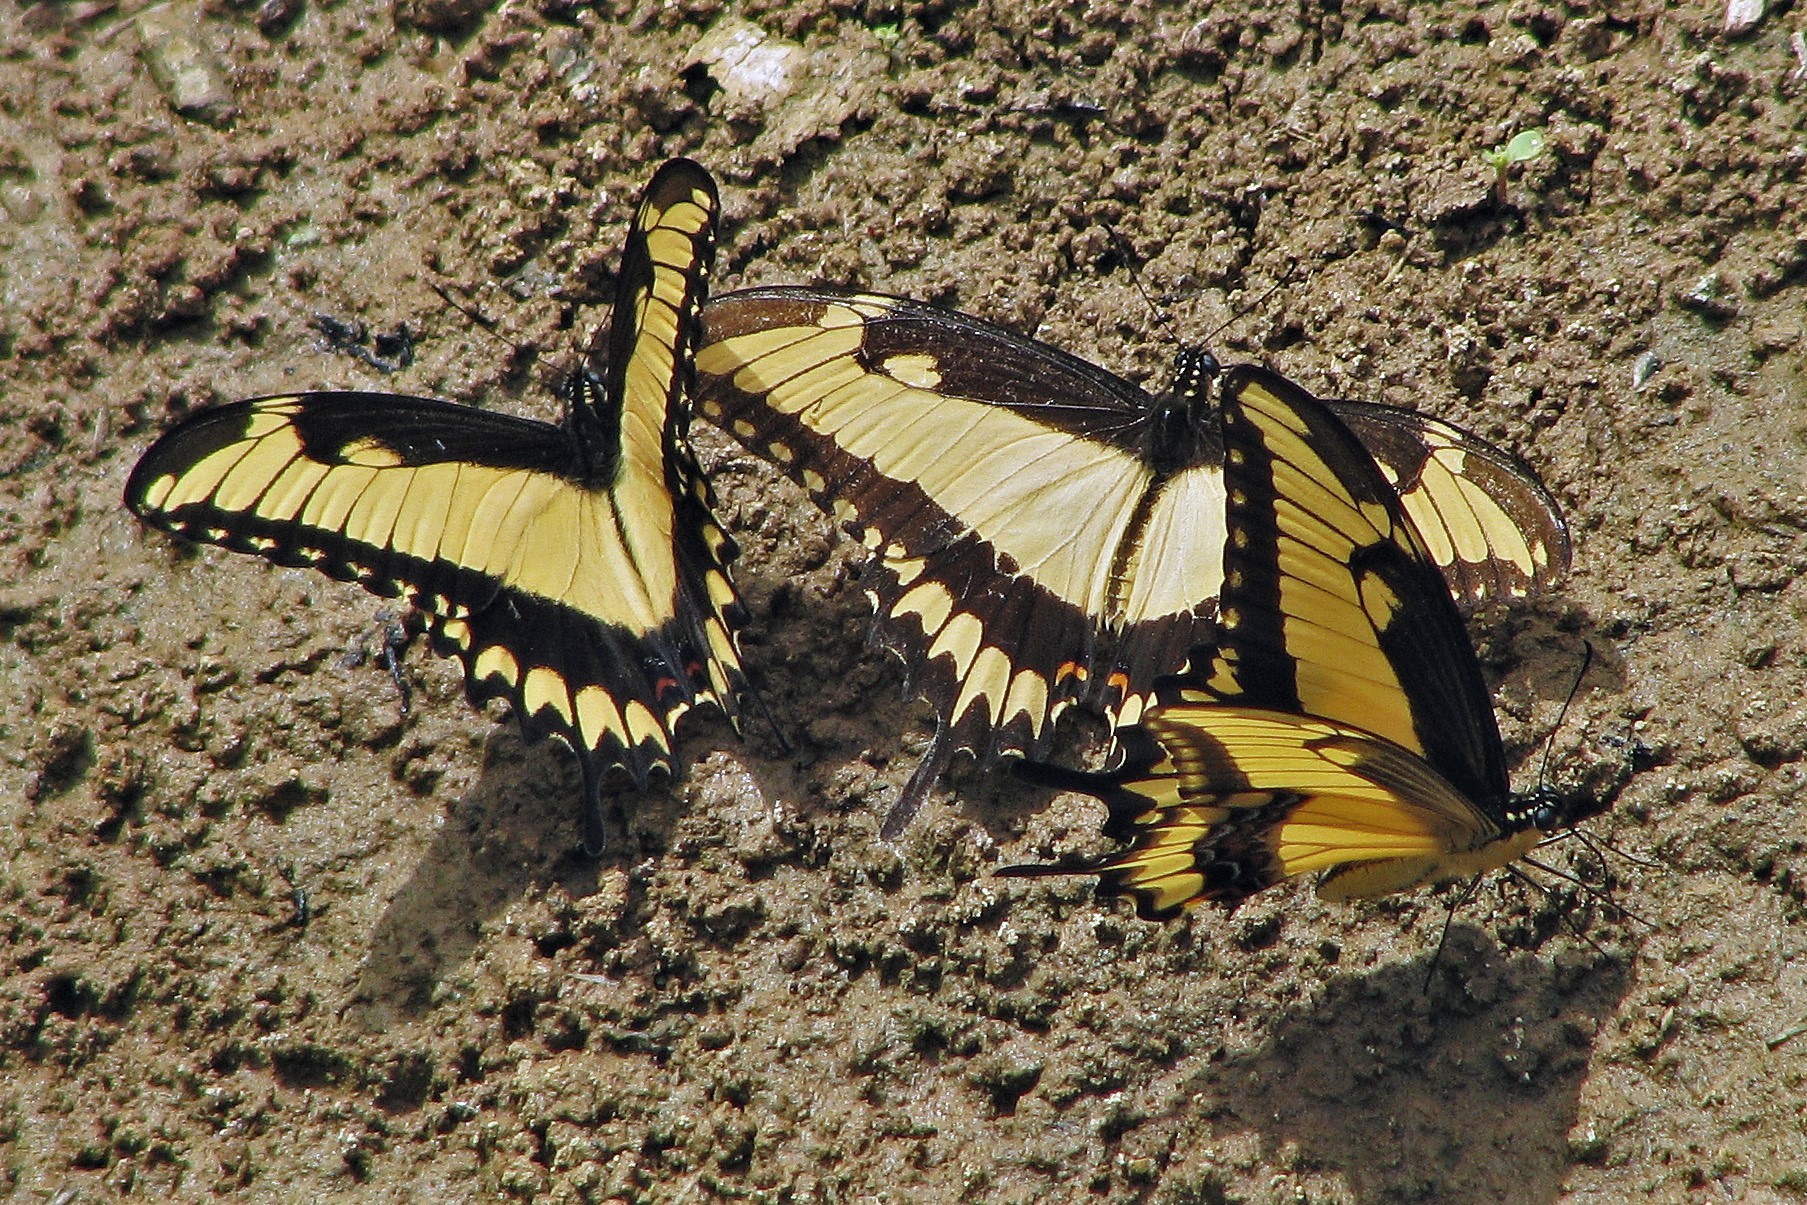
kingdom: Animalia
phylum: Arthropoda
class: Insecta
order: Lepidoptera
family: Papilionidae
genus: Papilio
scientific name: Papilio astyalus
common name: Astyalus swallowtail
